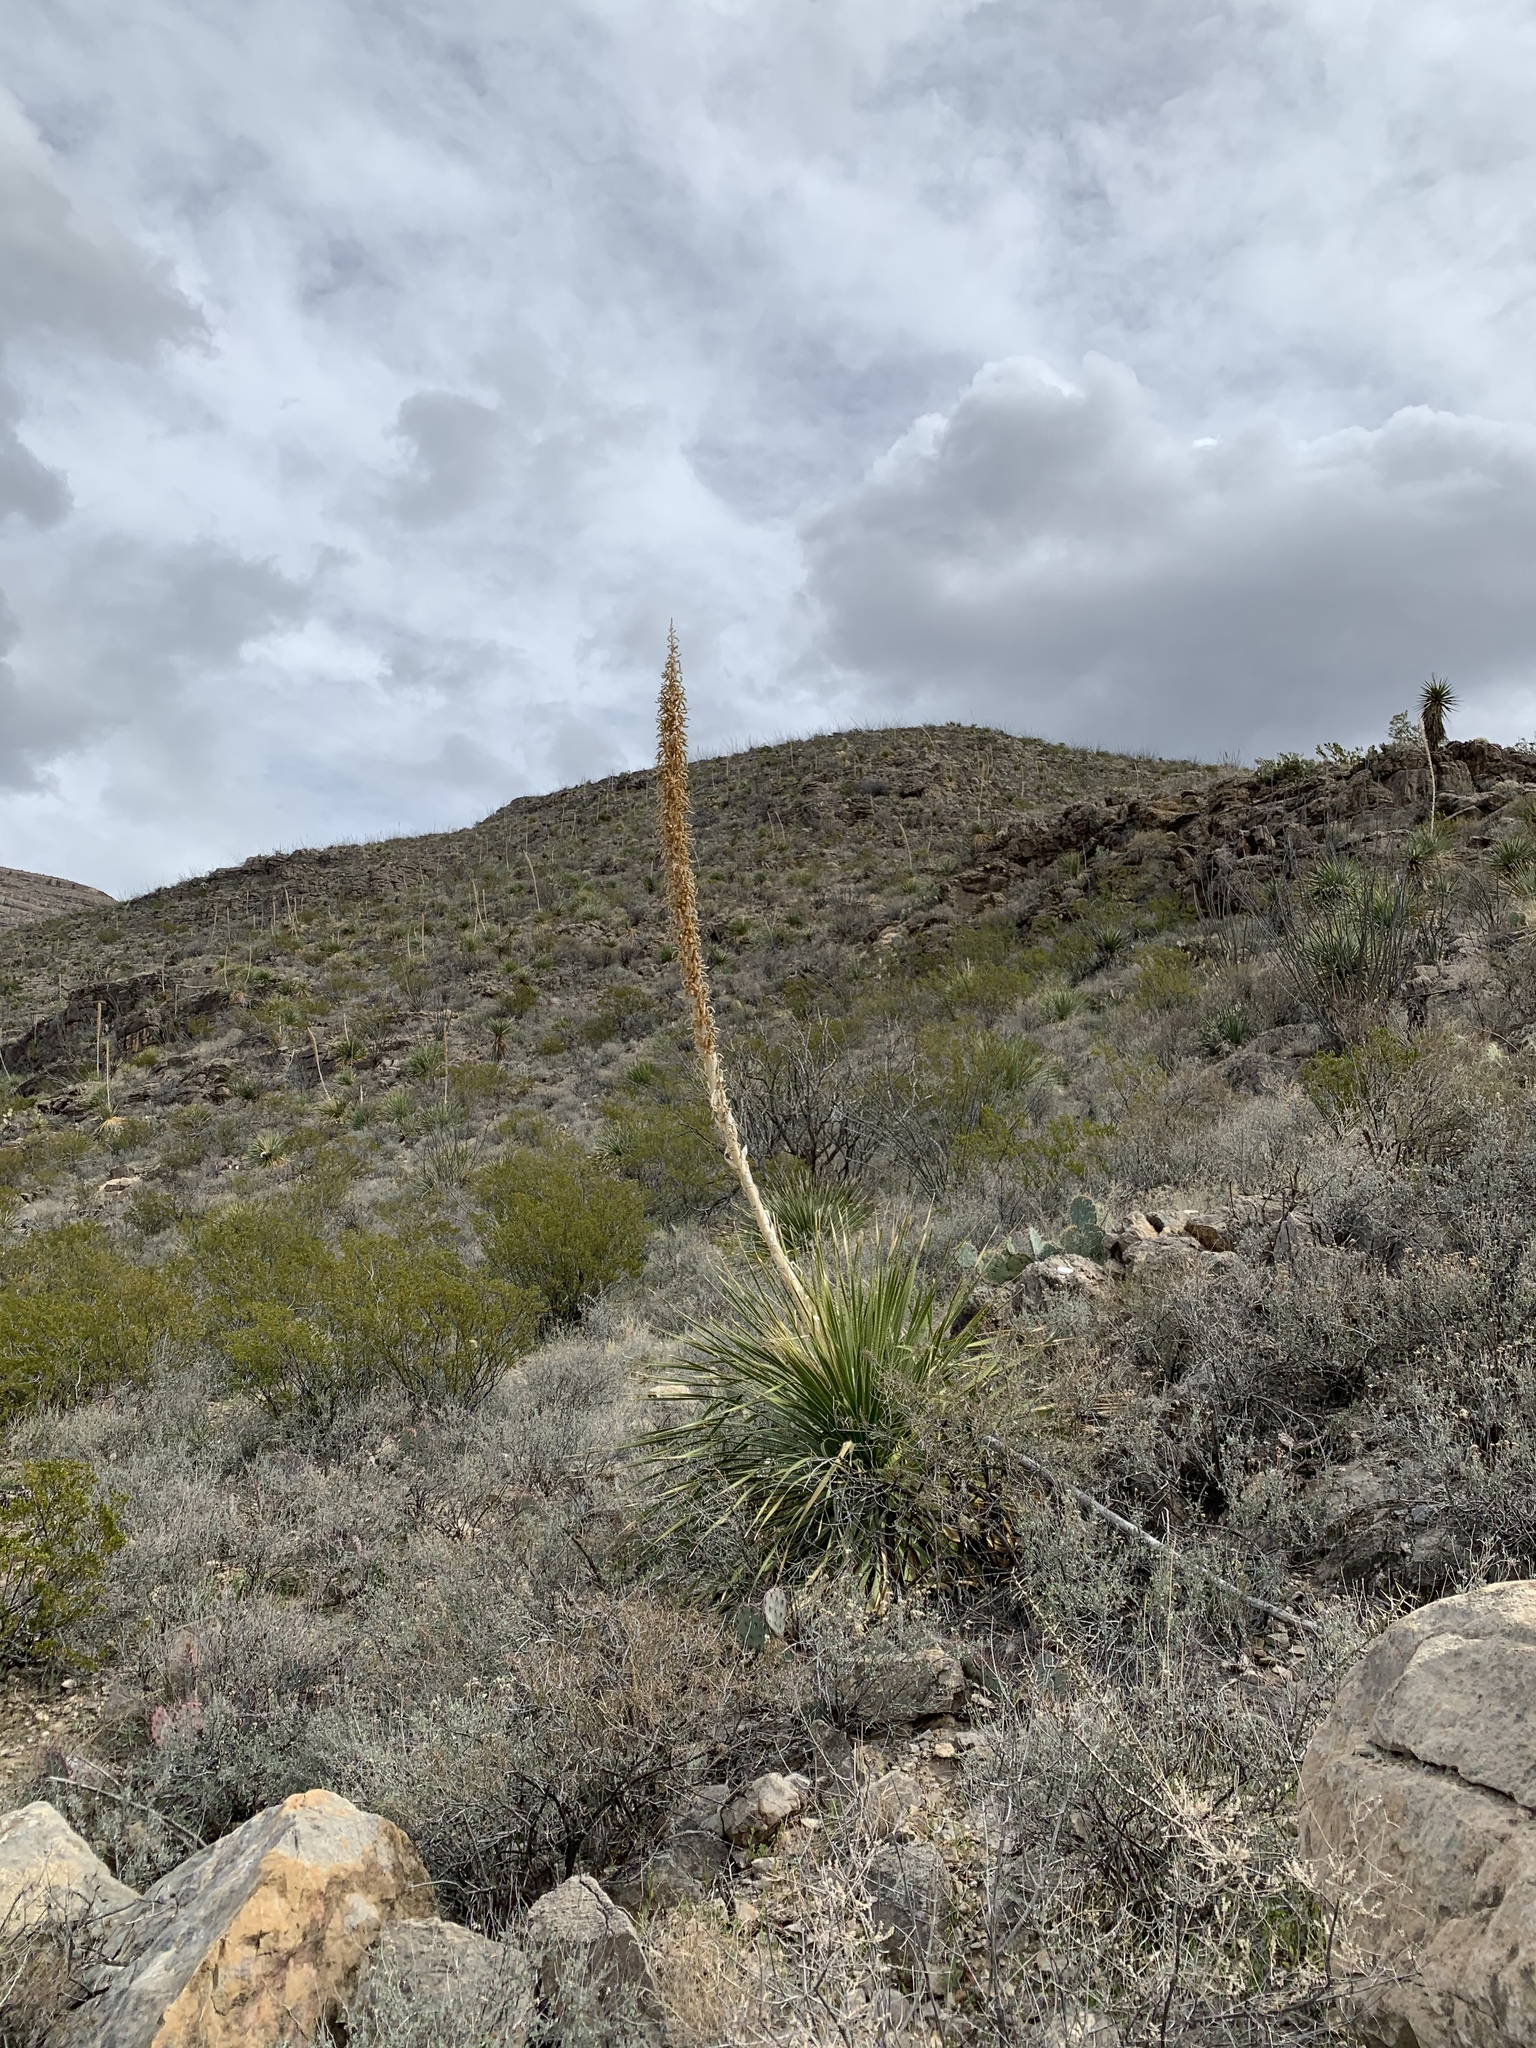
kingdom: Plantae
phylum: Tracheophyta
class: Liliopsida
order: Asparagales
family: Asparagaceae
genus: Dasylirion
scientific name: Dasylirion wheeleri
